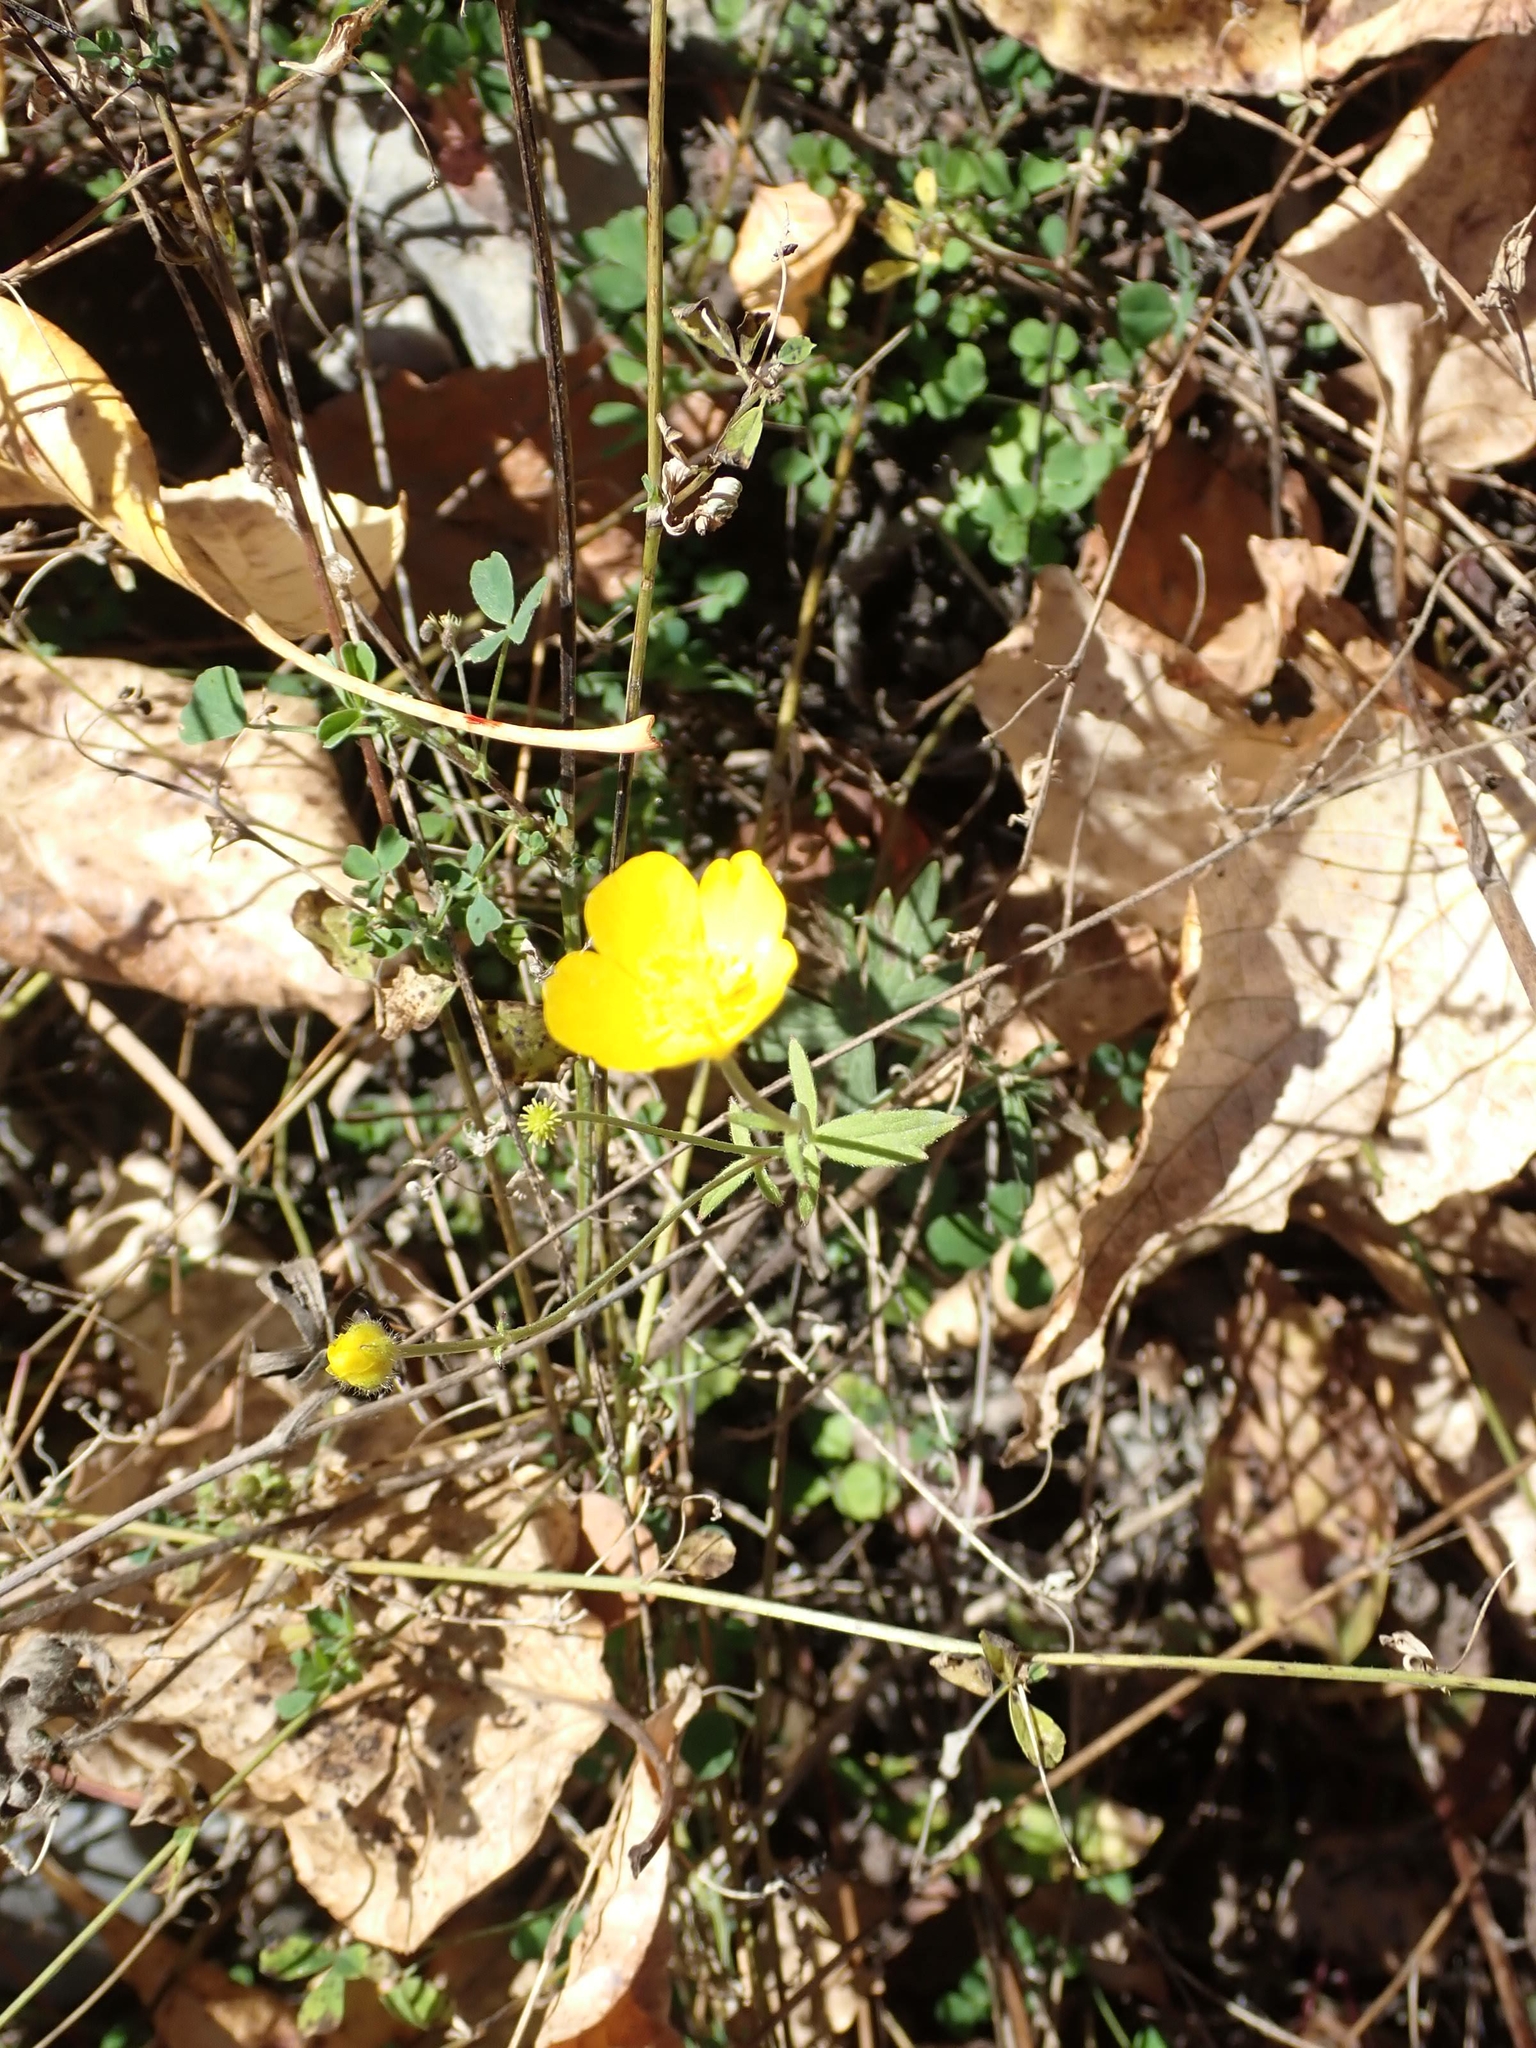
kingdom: Plantae
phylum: Tracheophyta
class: Magnoliopsida
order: Ranunculales
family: Ranunculaceae
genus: Ranunculus
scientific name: Ranunculus acris
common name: Meadow buttercup
